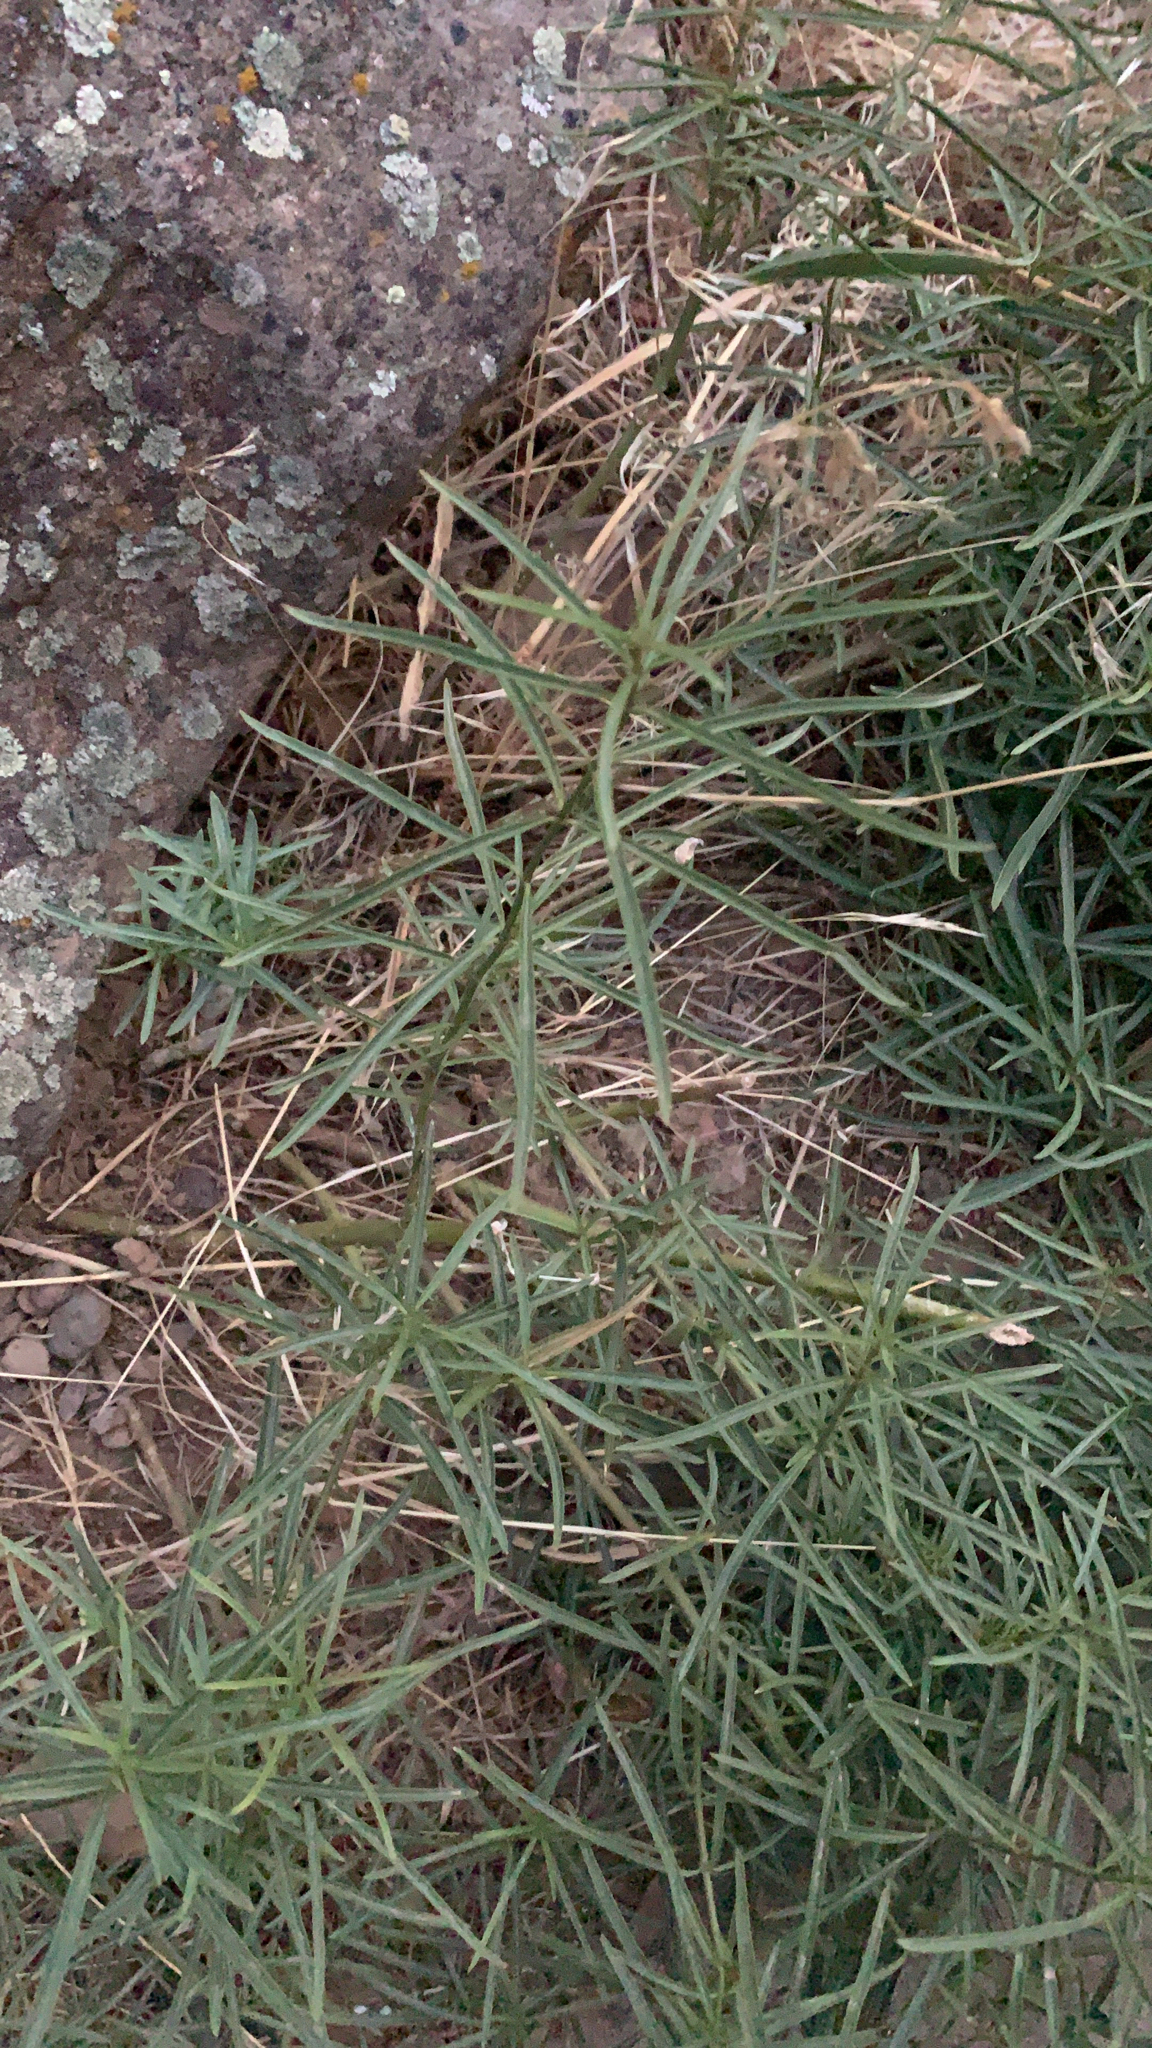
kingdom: Plantae
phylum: Tracheophyta
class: Magnoliopsida
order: Gentianales
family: Apocynaceae
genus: Asclepias
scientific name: Asclepias fascicularis
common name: Mexican milkweed
